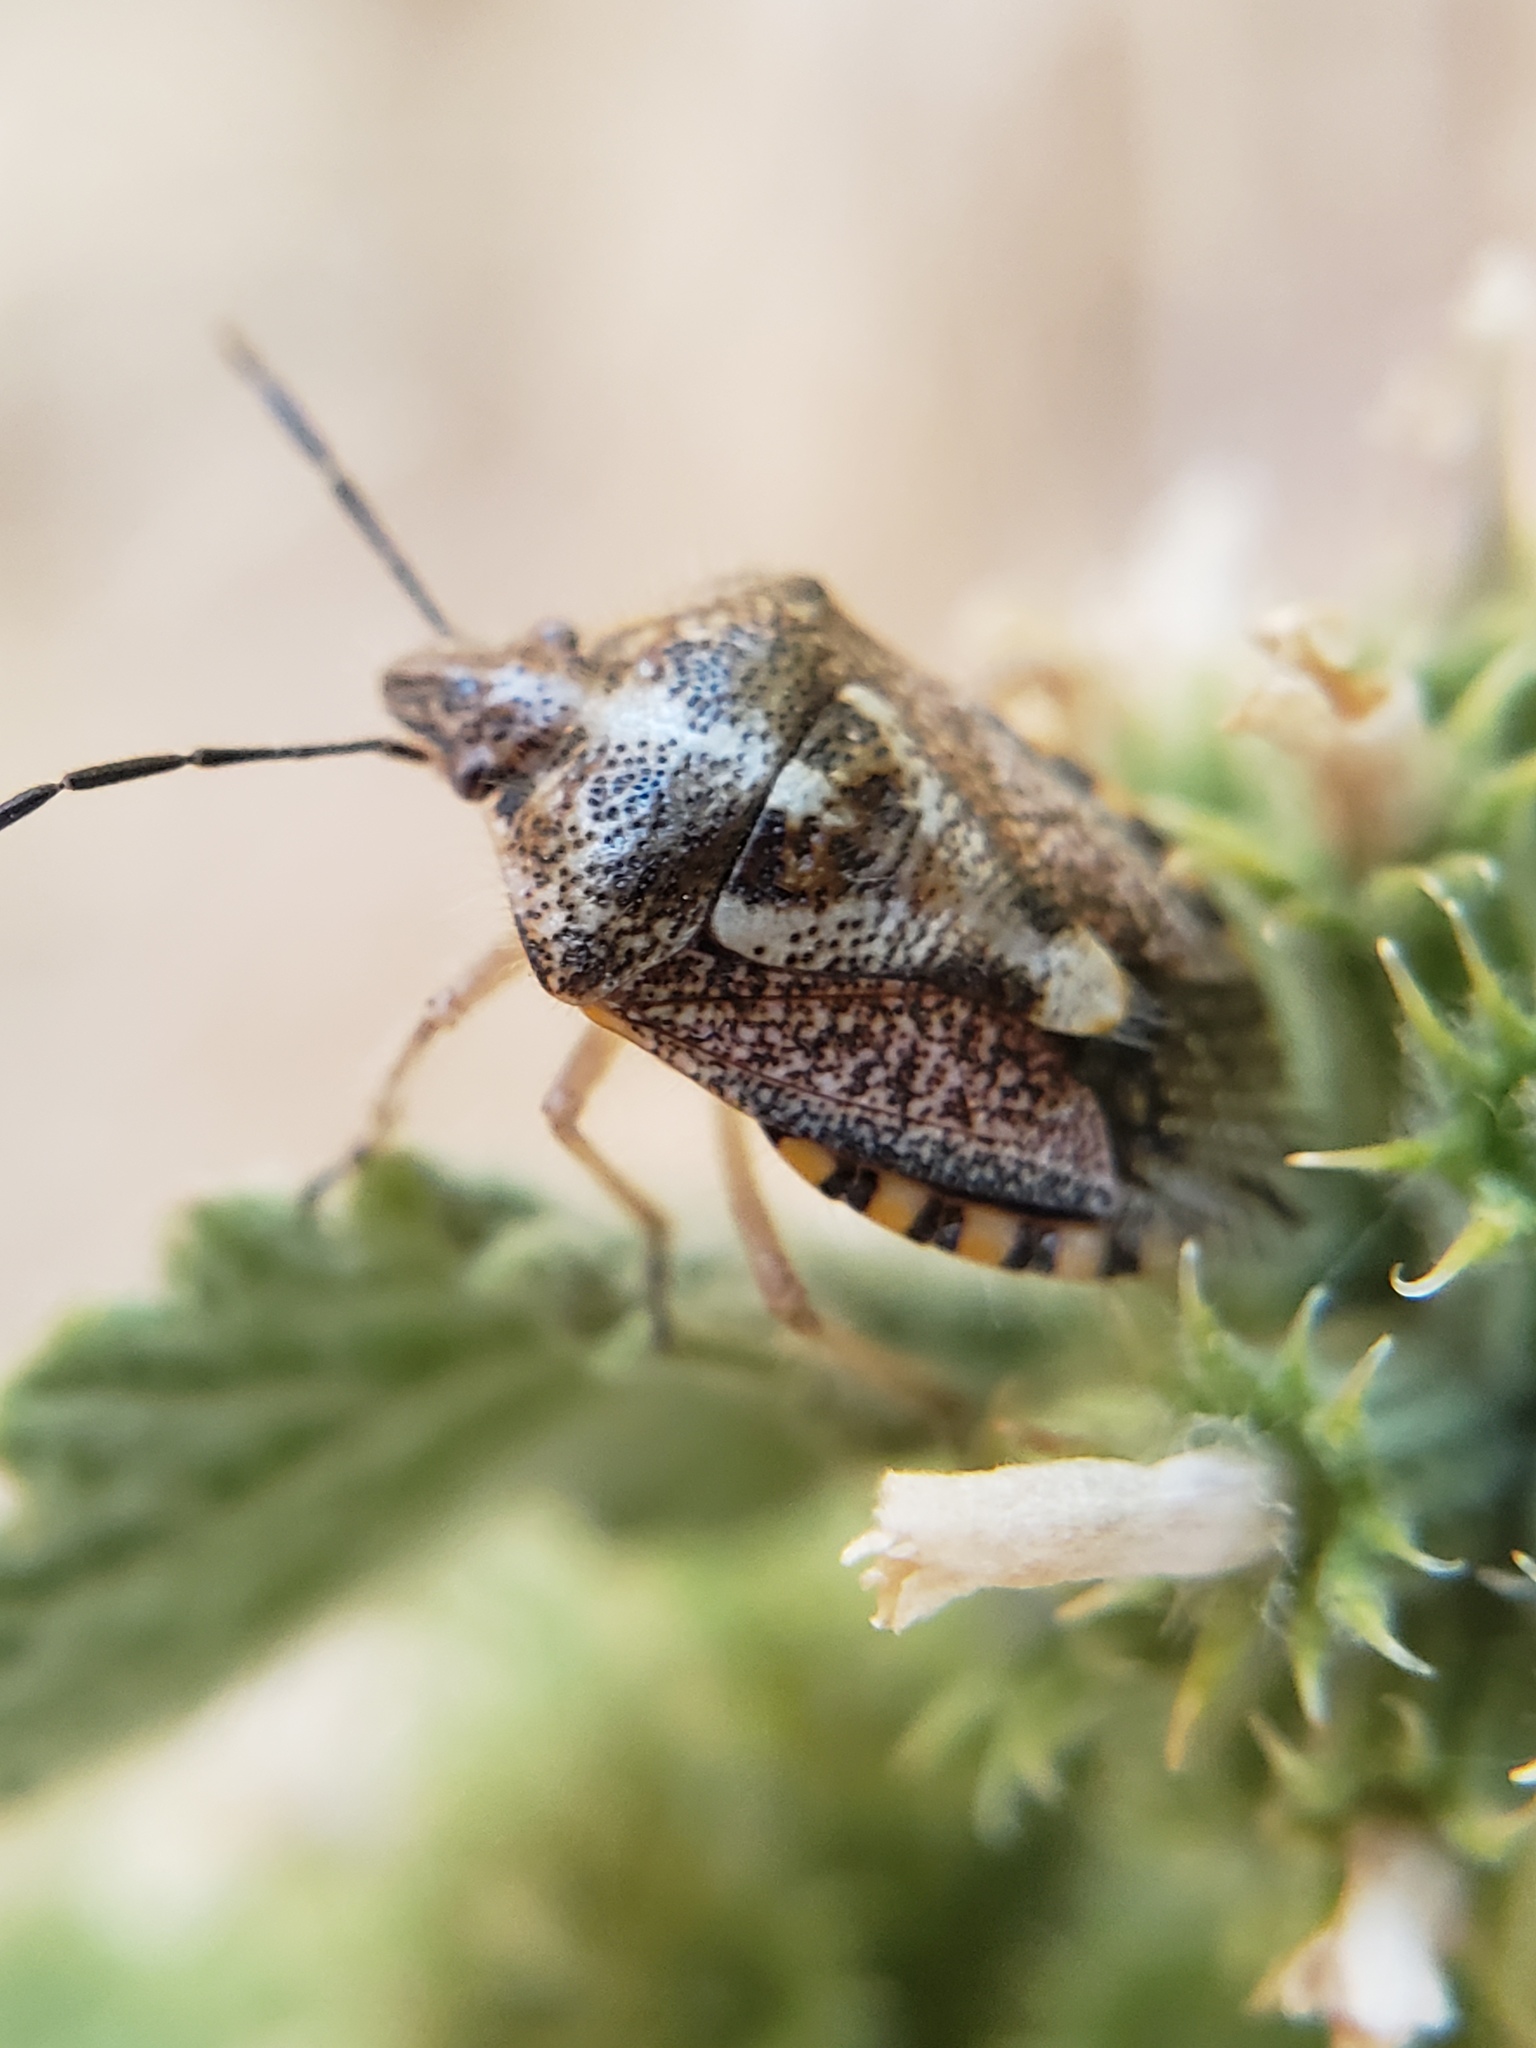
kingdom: Animalia
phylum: Arthropoda
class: Insecta
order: Hemiptera
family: Pentatomidae
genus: Agonoscelis
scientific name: Agonoscelis puberula
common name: African cluster bug
